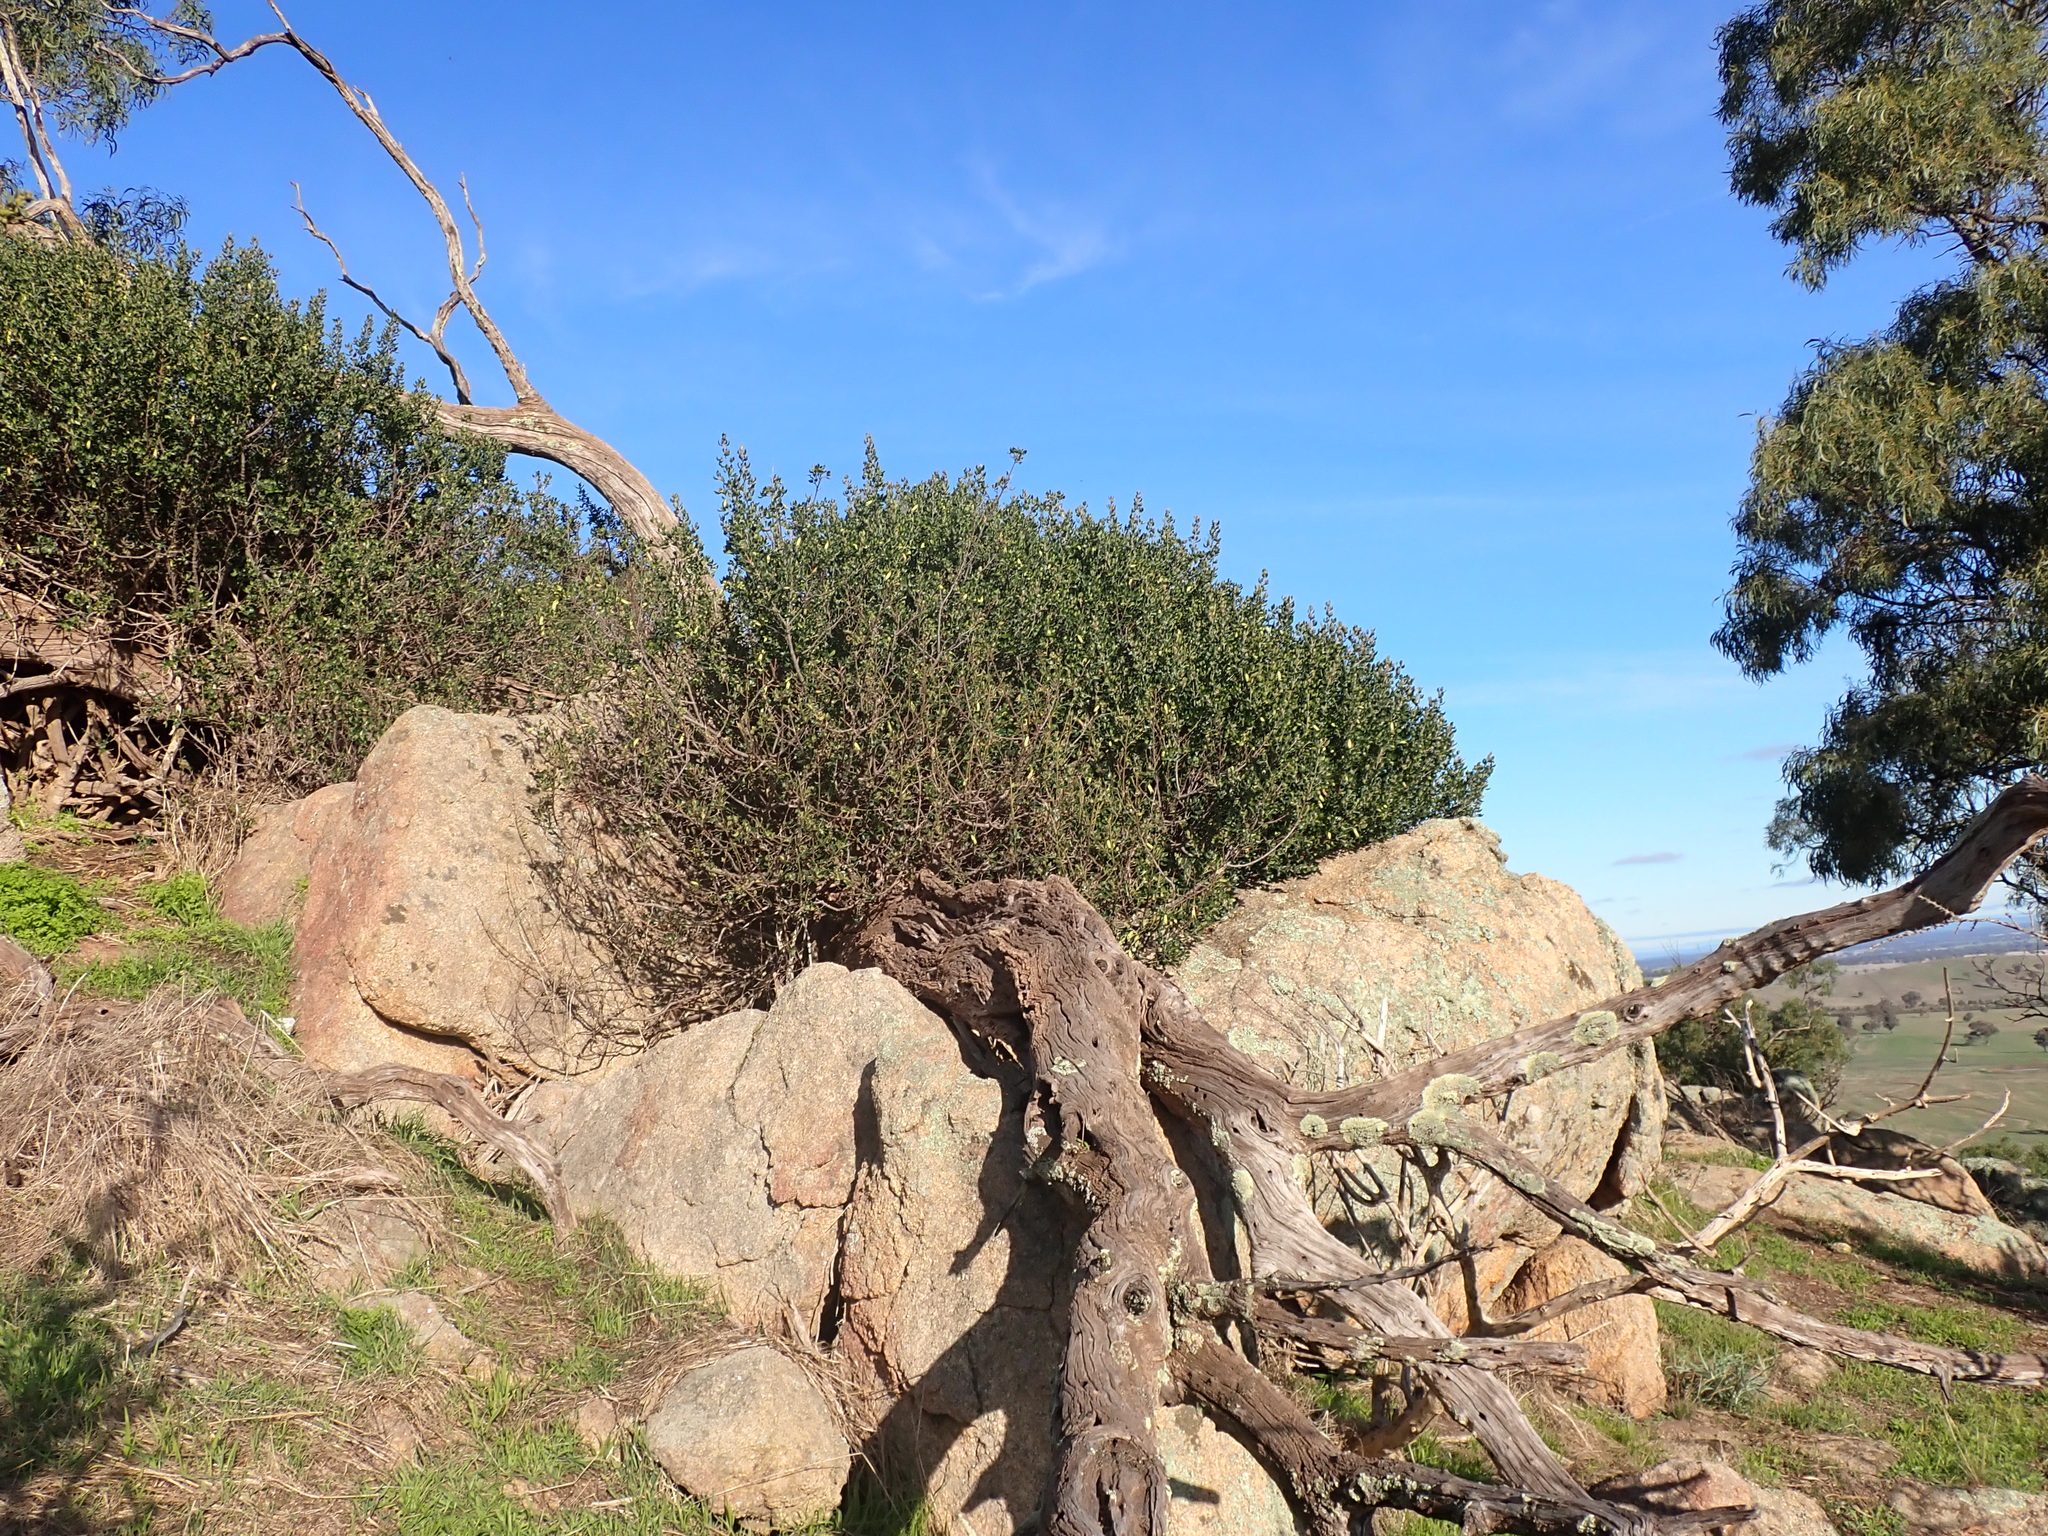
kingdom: Plantae
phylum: Tracheophyta
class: Magnoliopsida
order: Sapindales
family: Rutaceae
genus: Correa
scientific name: Correa glabra
